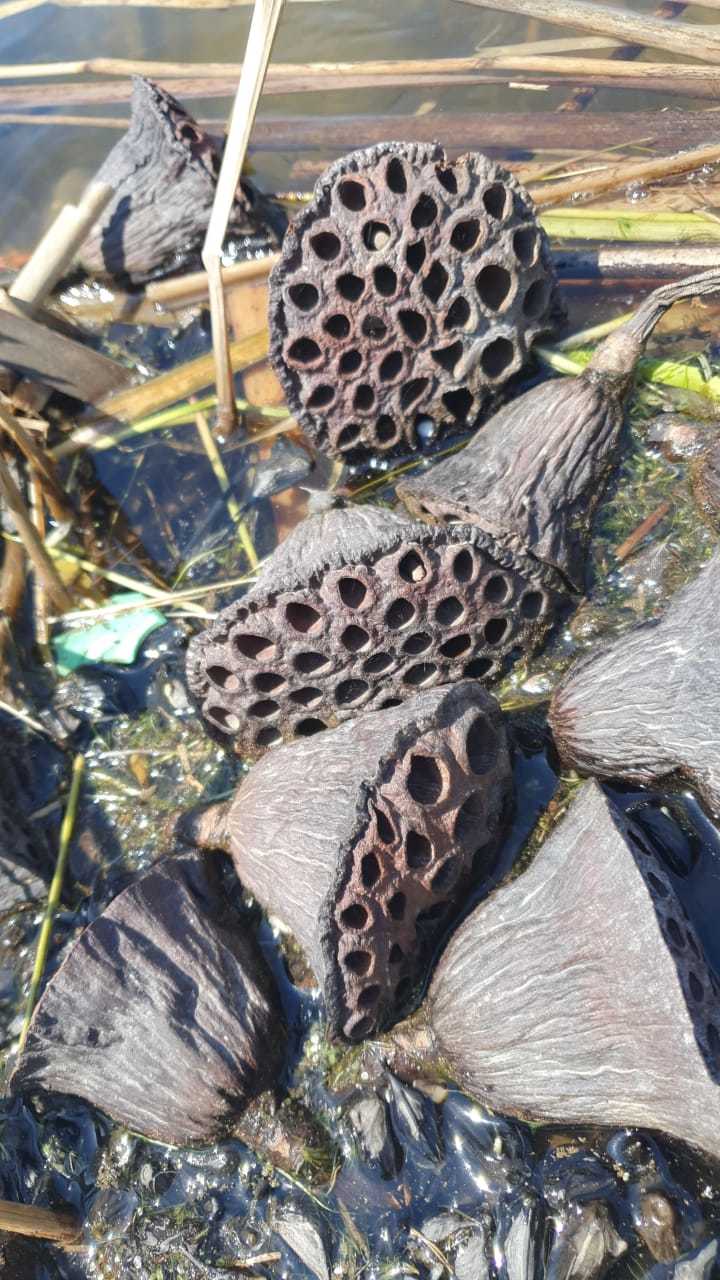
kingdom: Plantae
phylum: Tracheophyta
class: Magnoliopsida
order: Proteales
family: Nelumbonaceae
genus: Nelumbo
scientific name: Nelumbo nucifera
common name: Sacred lotus
